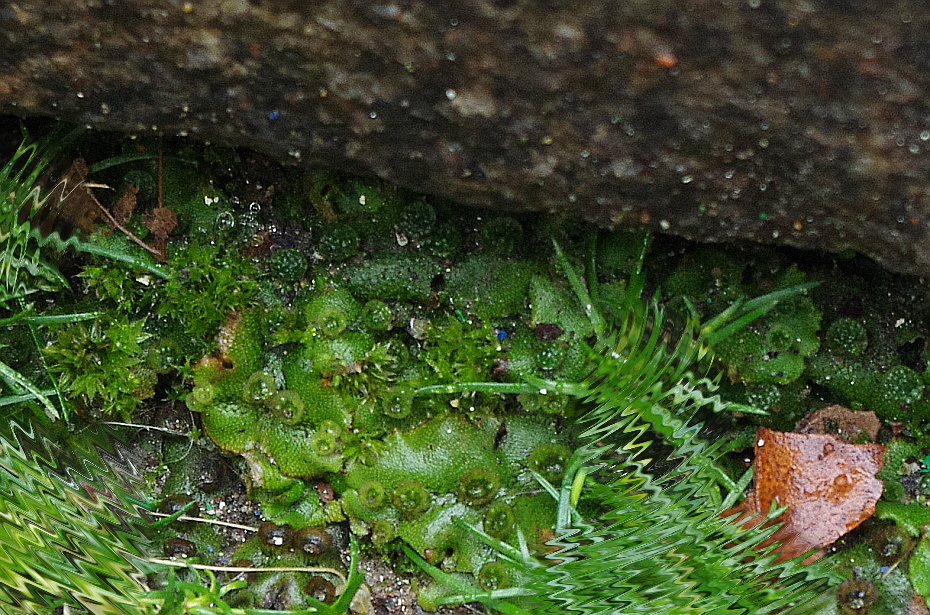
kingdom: Plantae
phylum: Marchantiophyta
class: Marchantiopsida
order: Marchantiales
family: Marchantiaceae
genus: Marchantia
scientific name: Marchantia polymorpha
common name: Common liverwort
